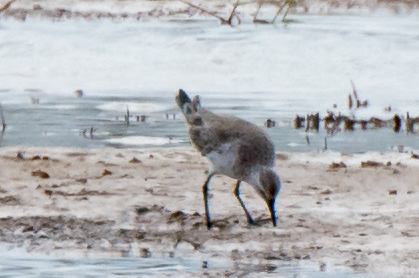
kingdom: Animalia
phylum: Chordata
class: Aves
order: Charadriiformes
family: Scolopacidae
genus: Calidris
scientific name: Calidris ferruginea
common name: Curlew sandpiper
